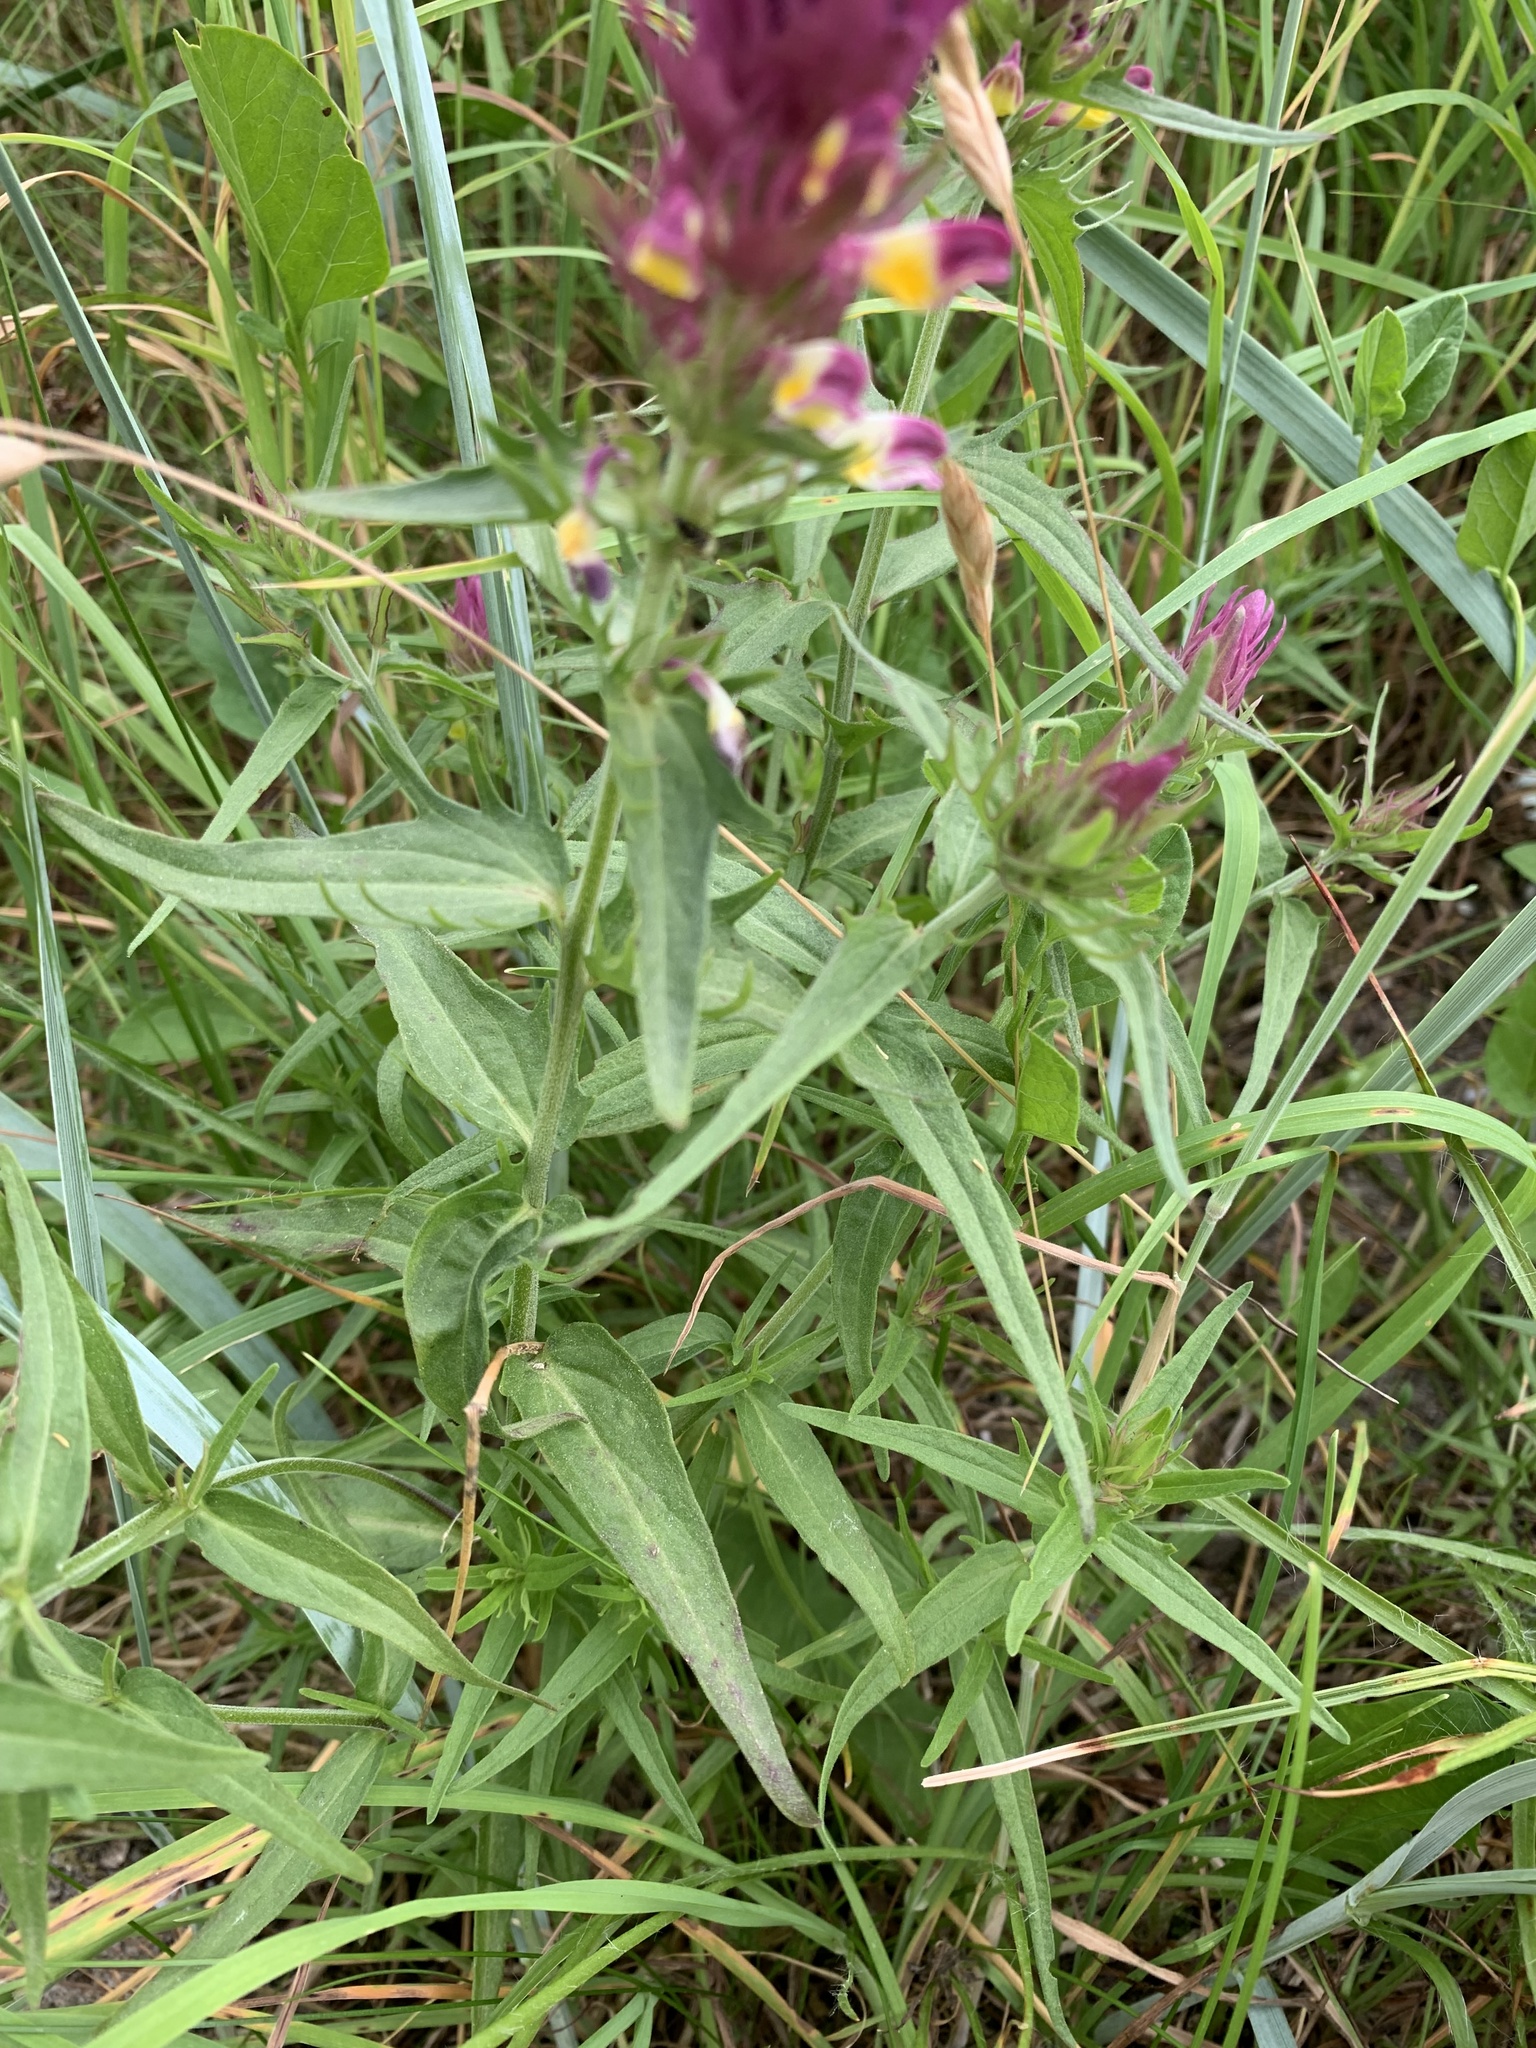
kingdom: Plantae
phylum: Tracheophyta
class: Magnoliopsida
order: Lamiales
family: Orobanchaceae
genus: Melampyrum
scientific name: Melampyrum arvense
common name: Field cow-wheat
